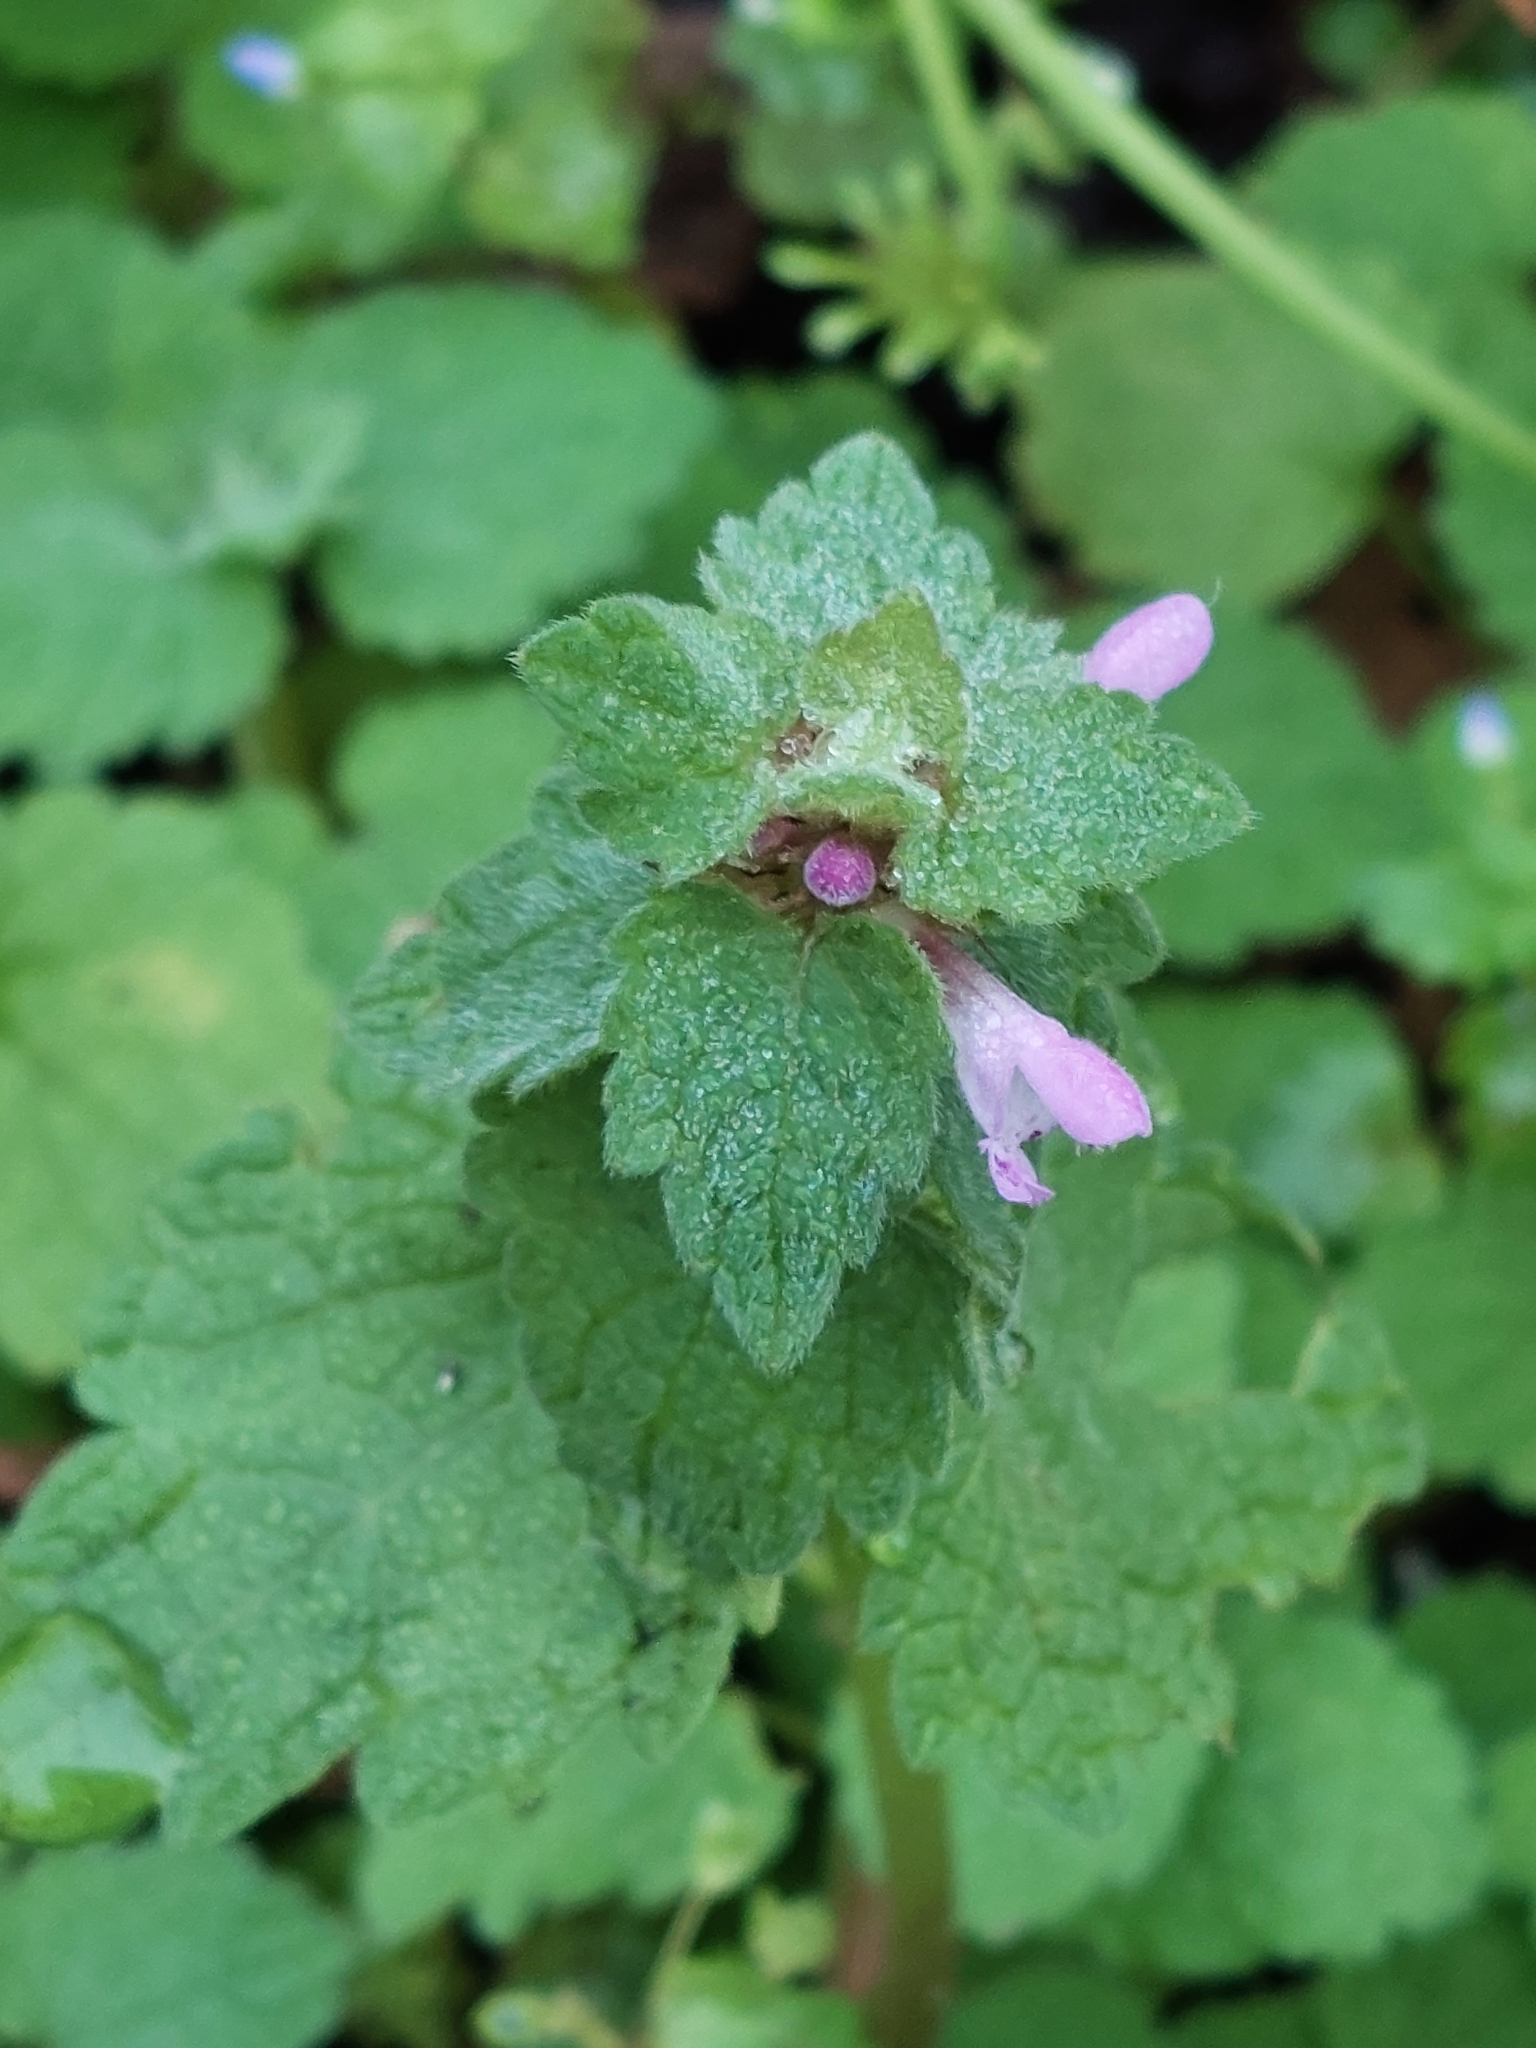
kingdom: Plantae
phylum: Tracheophyta
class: Magnoliopsida
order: Lamiales
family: Lamiaceae
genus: Lamium
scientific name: Lamium purpureum
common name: Red dead-nettle
